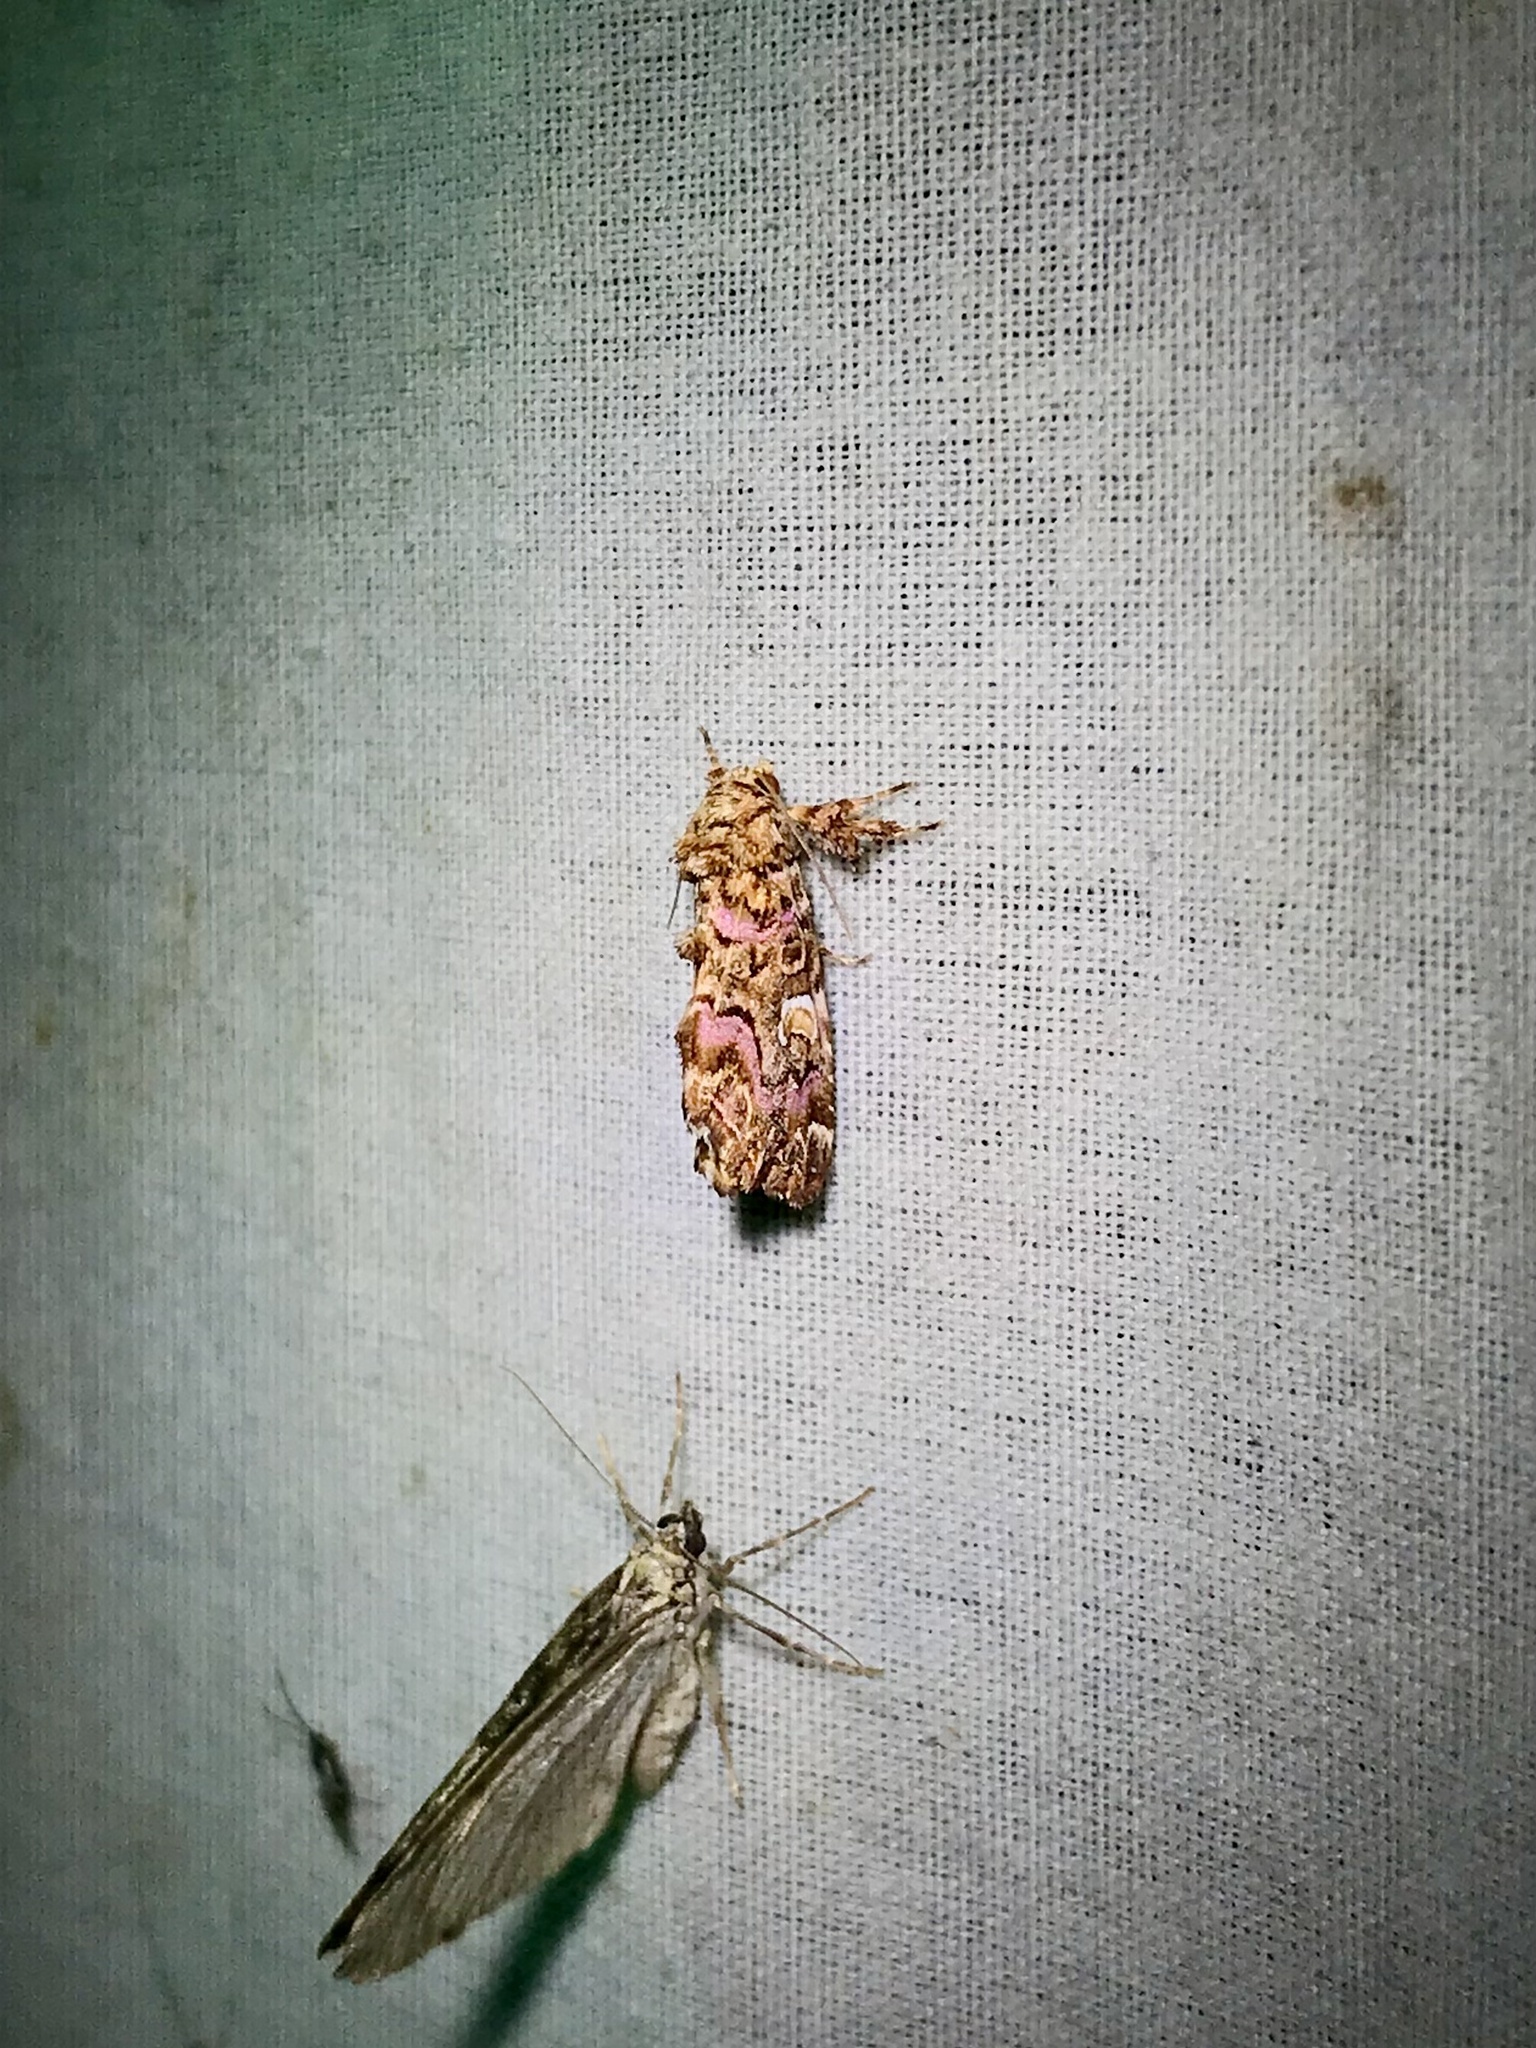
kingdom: Animalia
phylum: Arthropoda
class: Insecta
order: Lepidoptera
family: Noctuidae
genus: Callopistria
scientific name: Callopistria mollissima
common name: Pink-shaded fern moth
